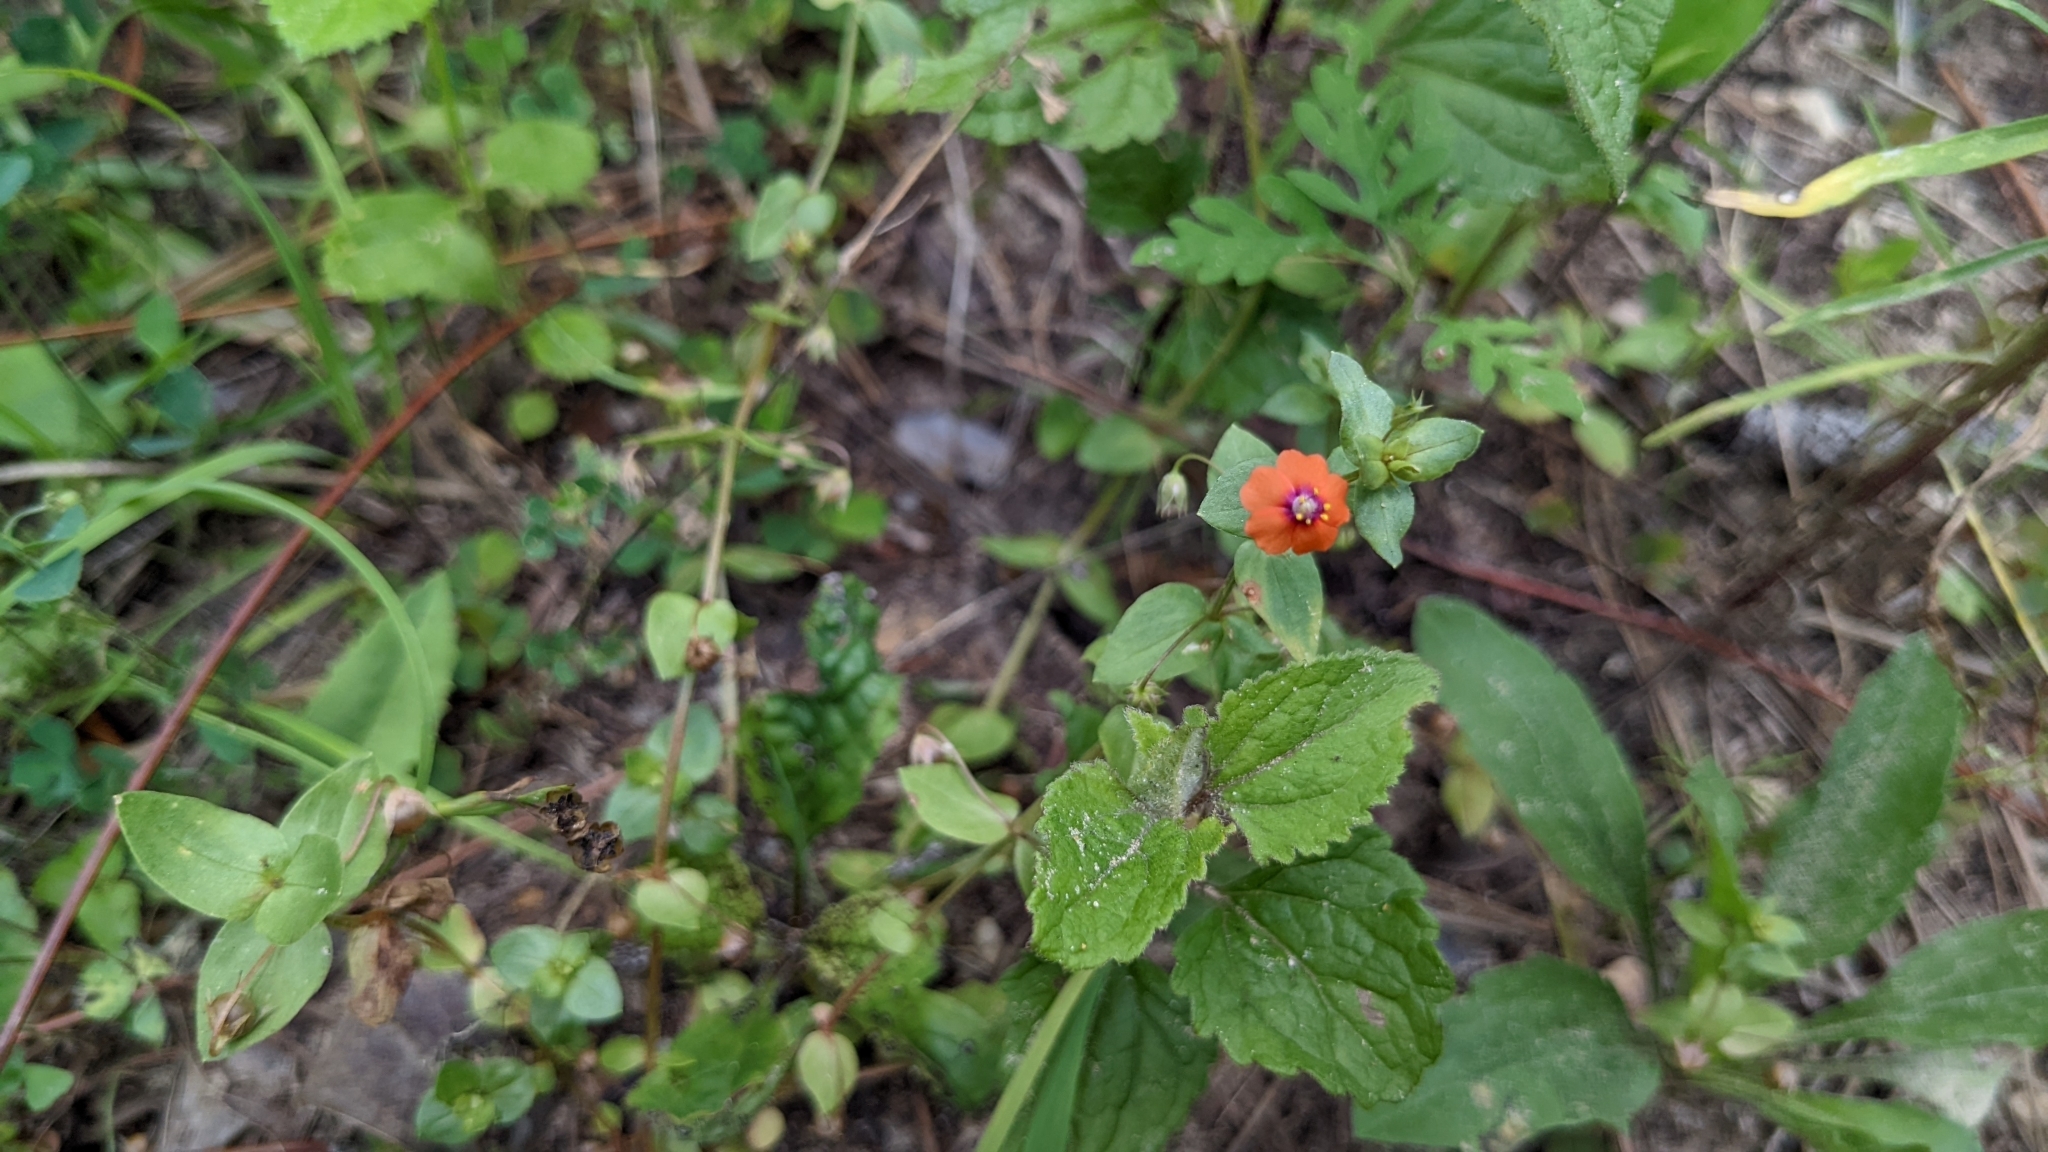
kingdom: Plantae
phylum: Tracheophyta
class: Magnoliopsida
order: Ericales
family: Primulaceae
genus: Lysimachia
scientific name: Lysimachia arvensis
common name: Scarlet pimpernel
